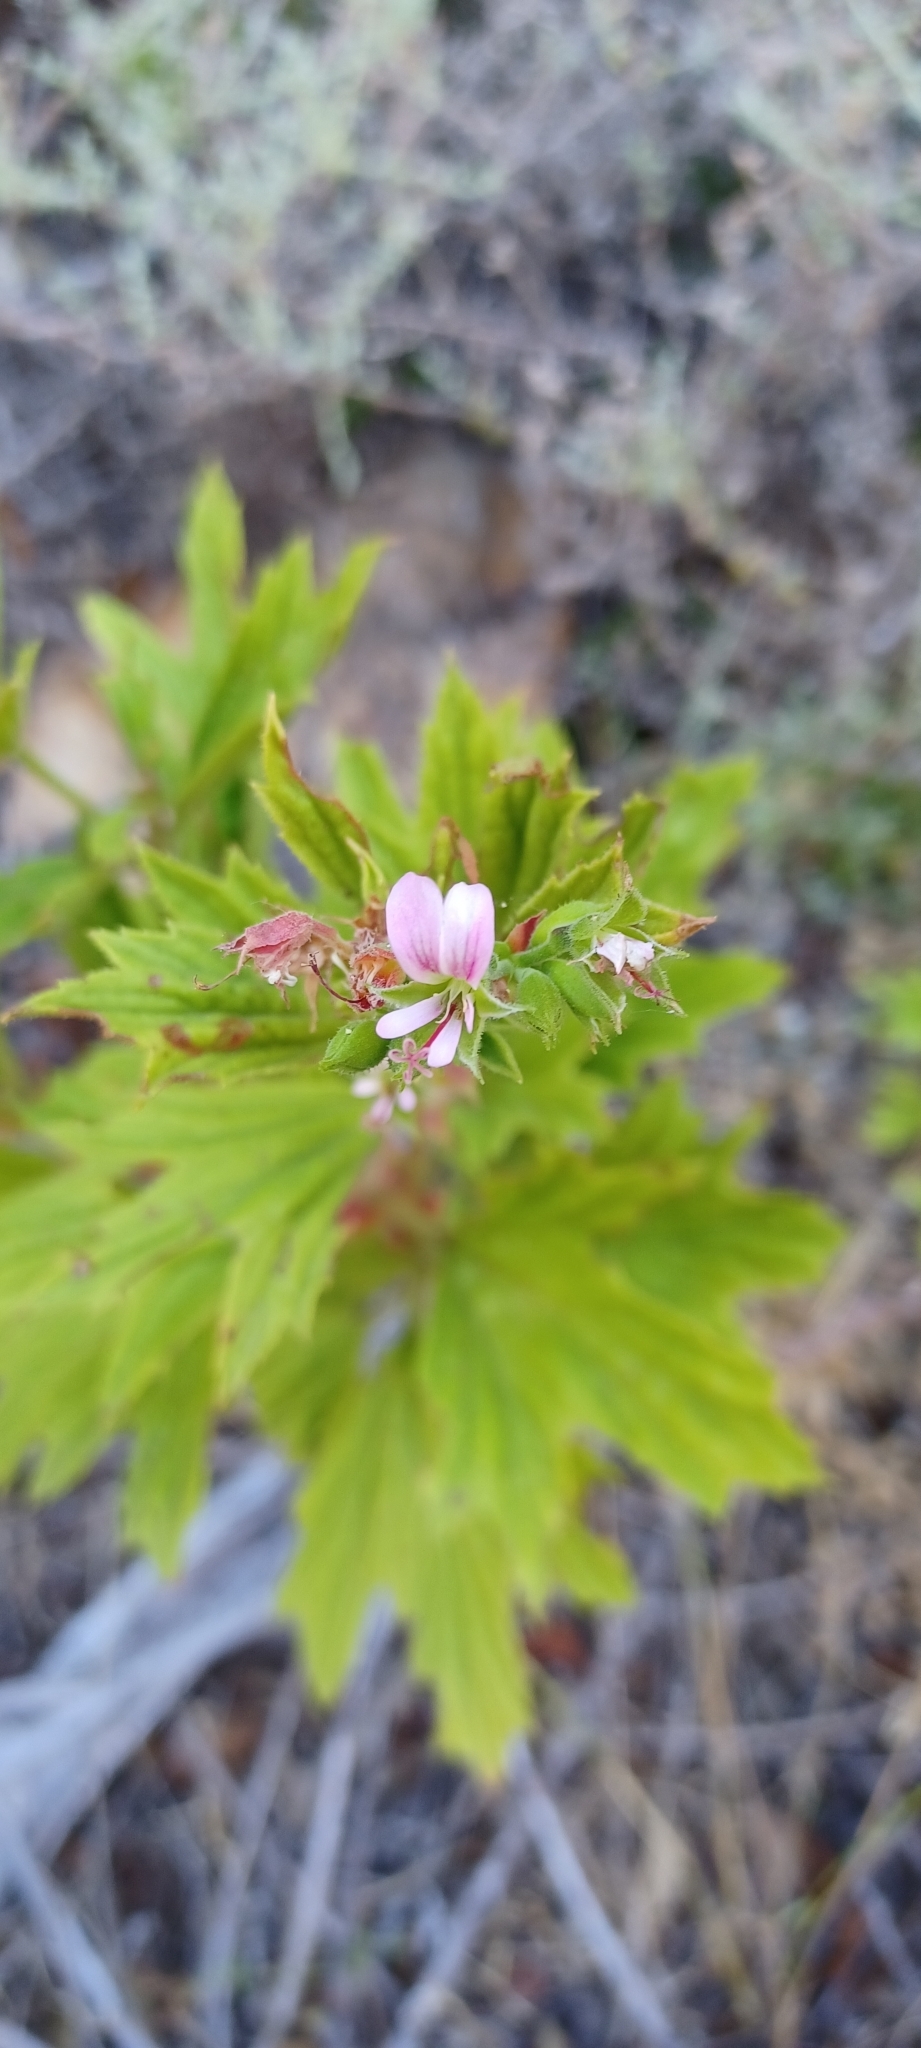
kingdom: Plantae
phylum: Tracheophyta
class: Magnoliopsida
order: Geraniales
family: Geraniaceae
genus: Pelargonium
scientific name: Pelargonium scabrum
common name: Apricot geranium
